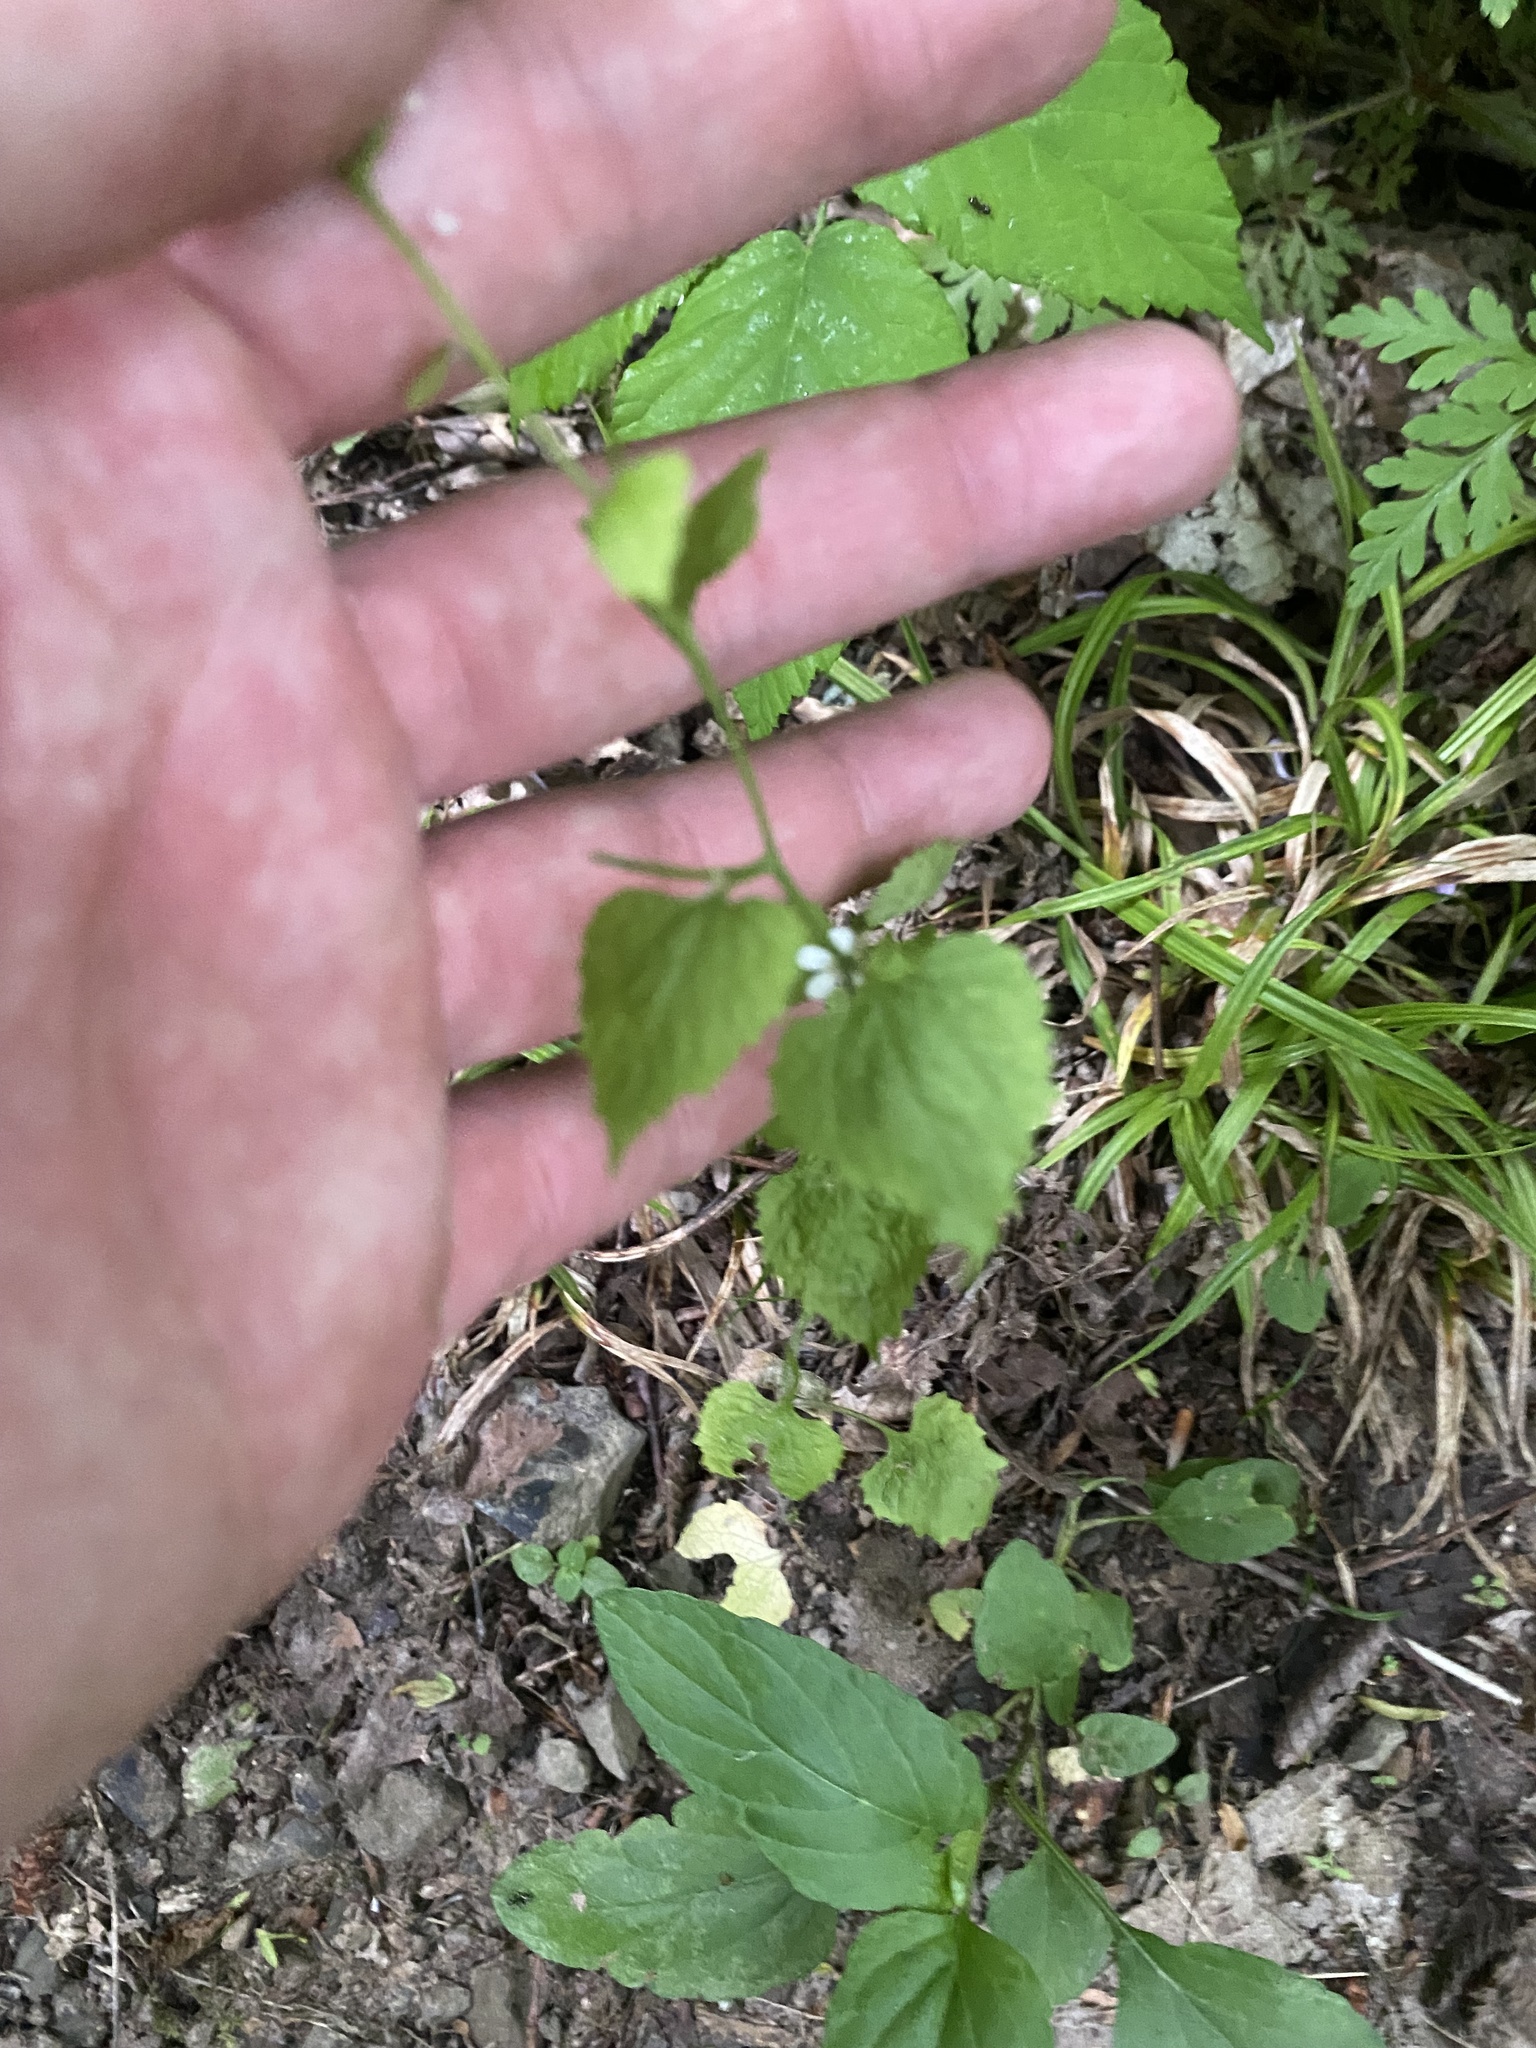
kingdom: Plantae
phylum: Tracheophyta
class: Magnoliopsida
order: Brassicales
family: Brassicaceae
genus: Alliaria
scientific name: Alliaria petiolata
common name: Garlic mustard
